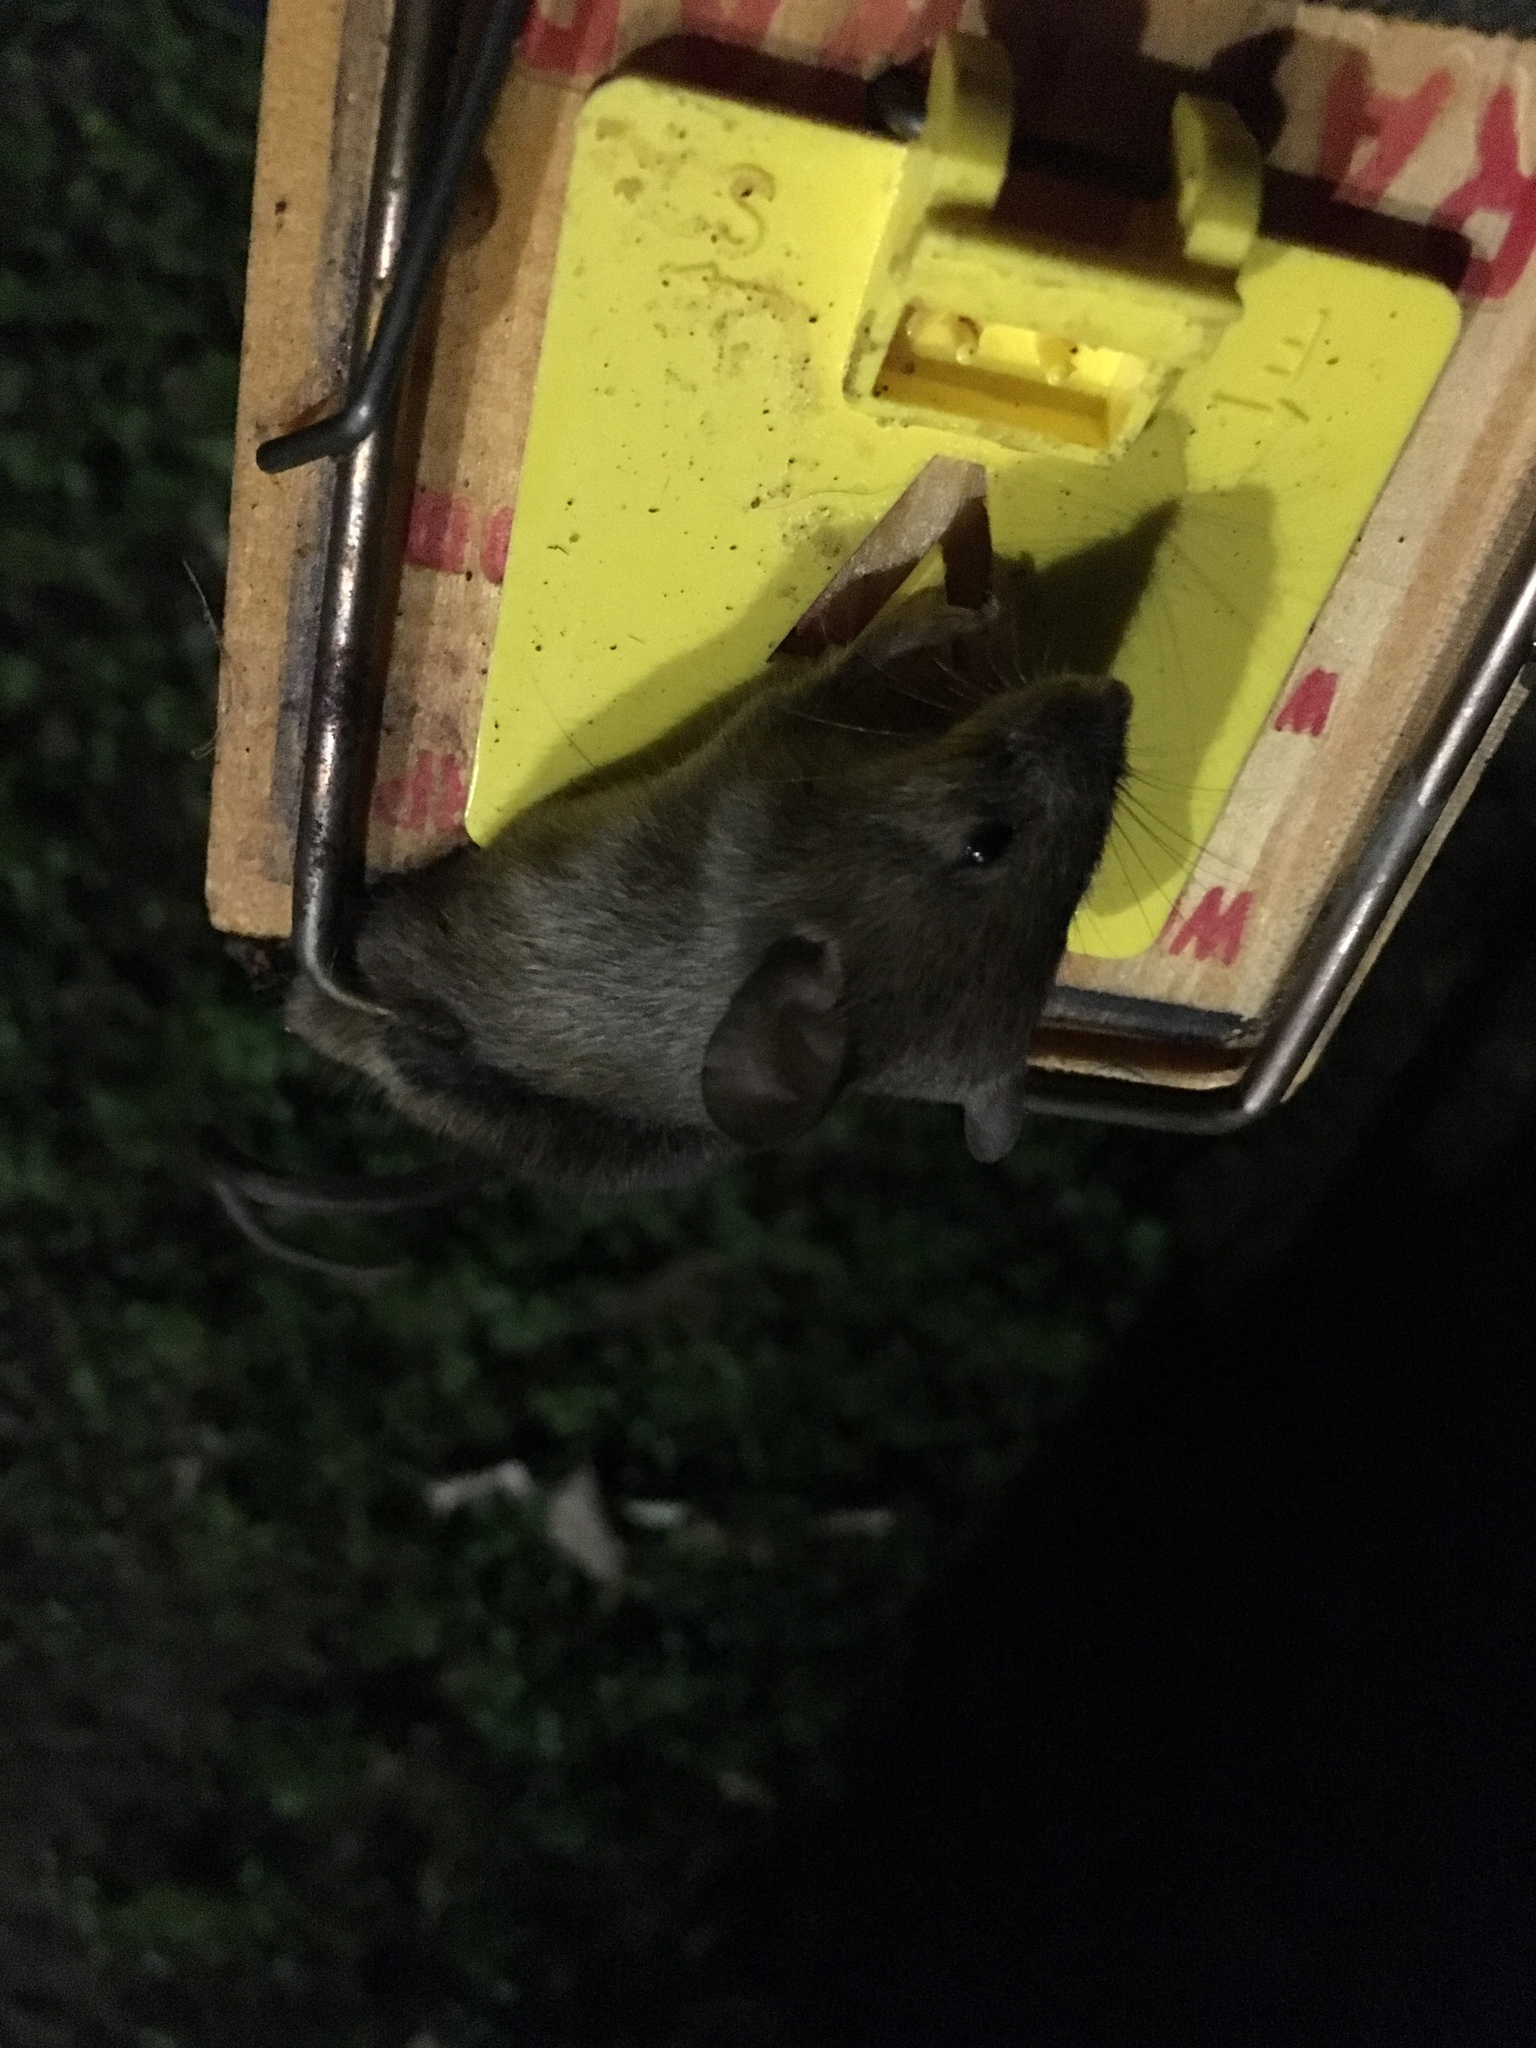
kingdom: Animalia
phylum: Chordata
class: Mammalia
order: Rodentia
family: Muridae
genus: Mus
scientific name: Mus musculus
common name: House mouse
